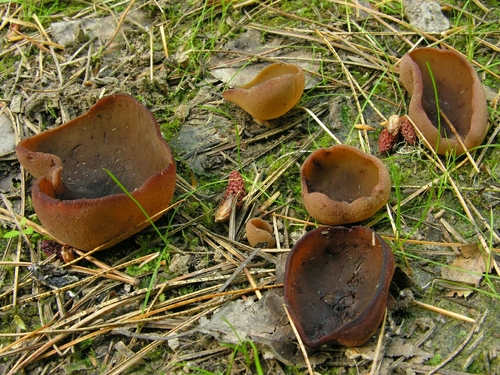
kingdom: Fungi
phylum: Ascomycota
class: Pezizomycetes
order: Pezizales
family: Pezizaceae
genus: Legaliana
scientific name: Legaliana
